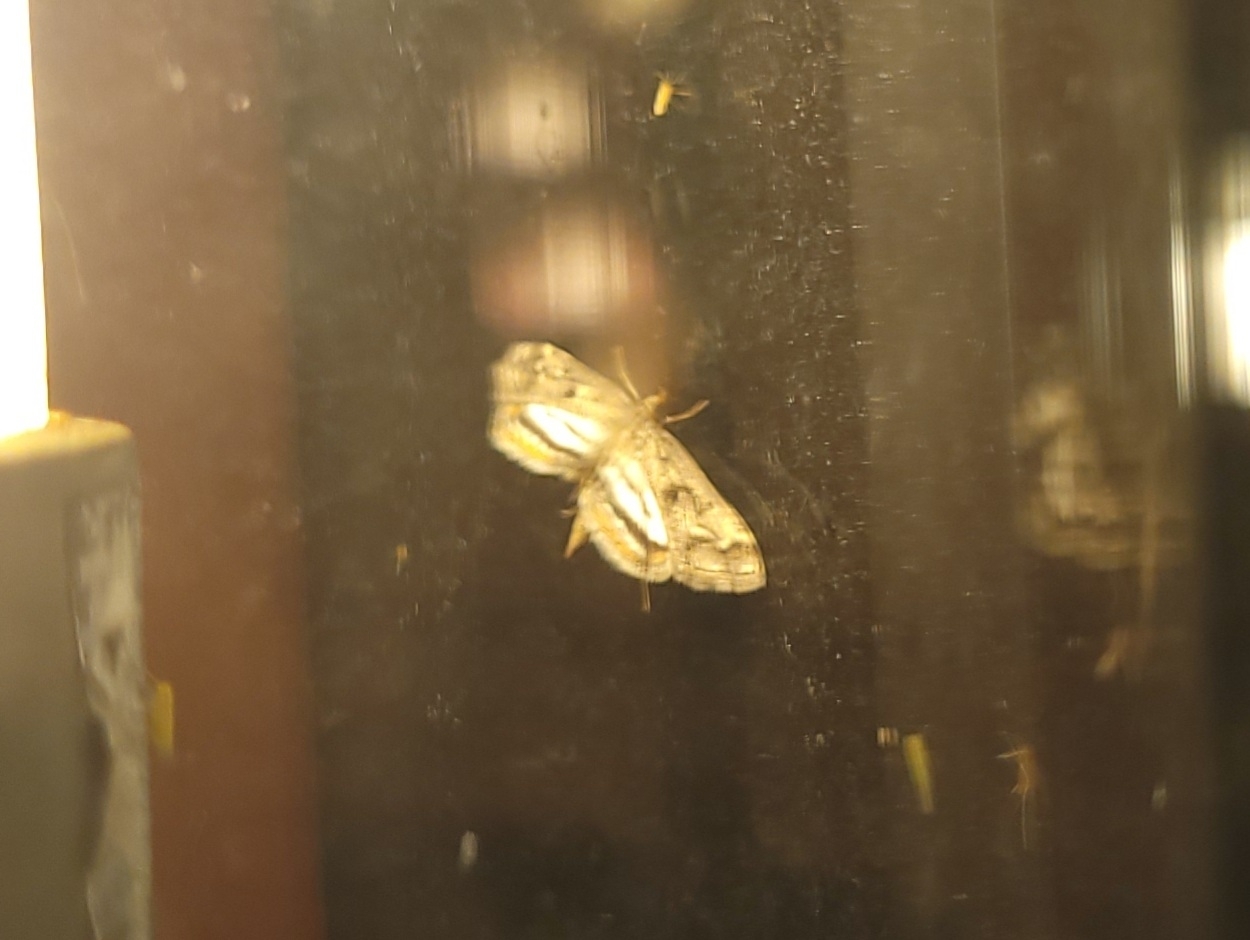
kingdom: Animalia
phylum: Arthropoda
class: Insecta
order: Lepidoptera
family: Crambidae
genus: Parapoynx
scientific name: Parapoynx obscuralis
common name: American china-mark
